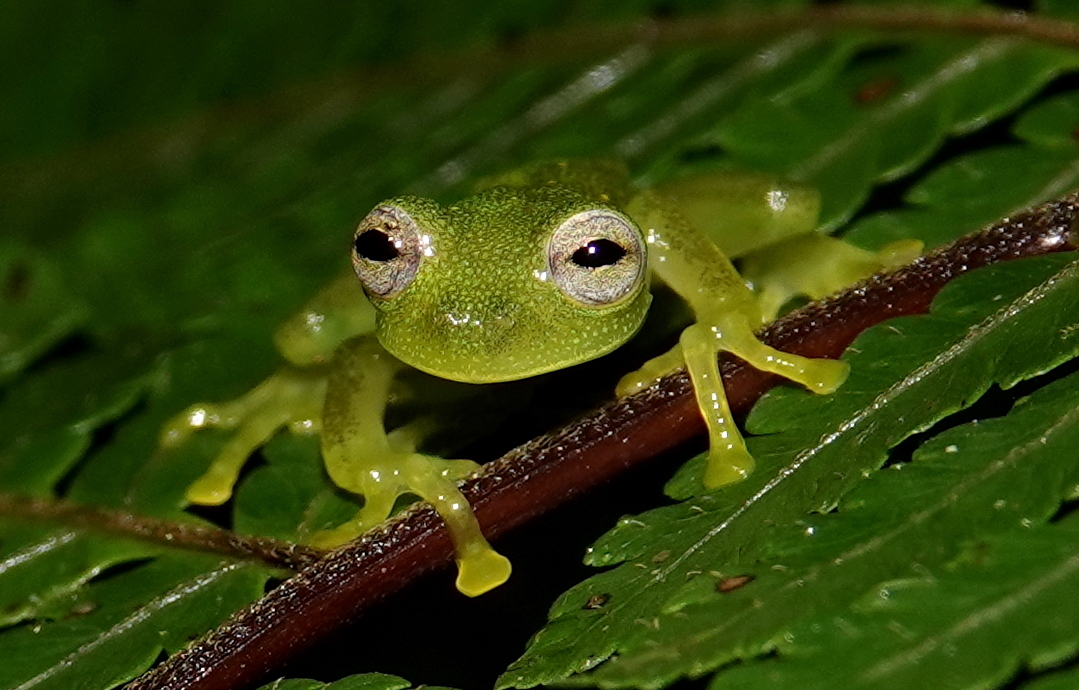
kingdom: Animalia
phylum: Chordata
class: Amphibia
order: Anura
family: Centrolenidae
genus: Nymphargus
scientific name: Nymphargus siren
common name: Rio coca cochran frog
